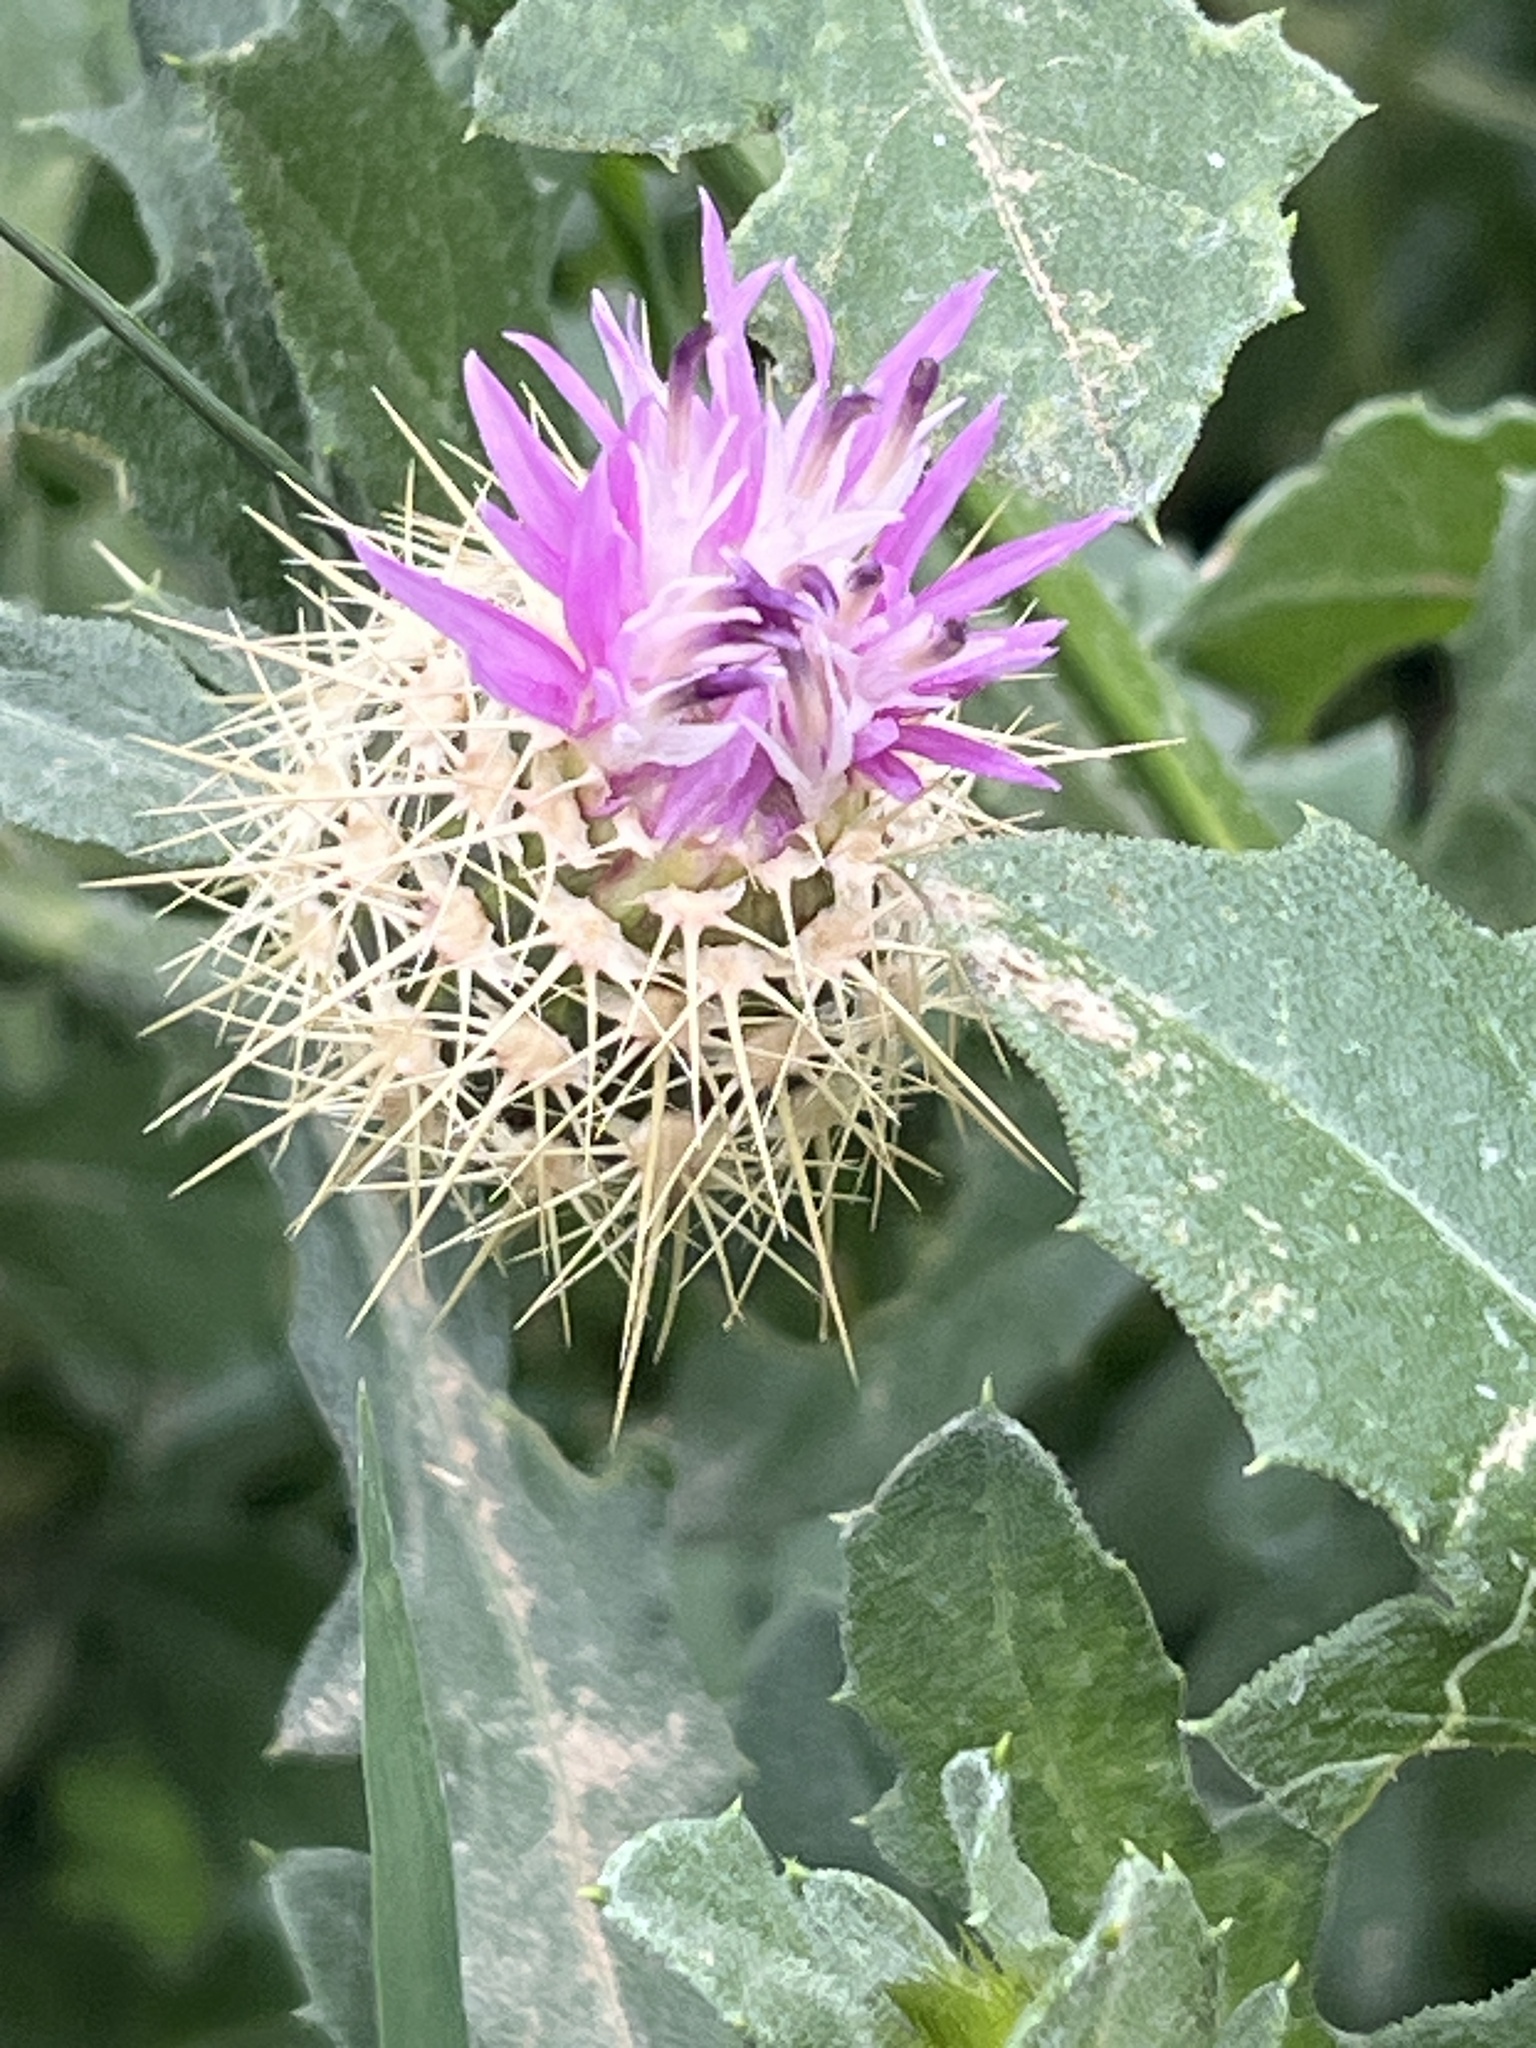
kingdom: Plantae
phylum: Tracheophyta
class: Magnoliopsida
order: Asterales
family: Asteraceae
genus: Centaurea
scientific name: Centaurea seridis
